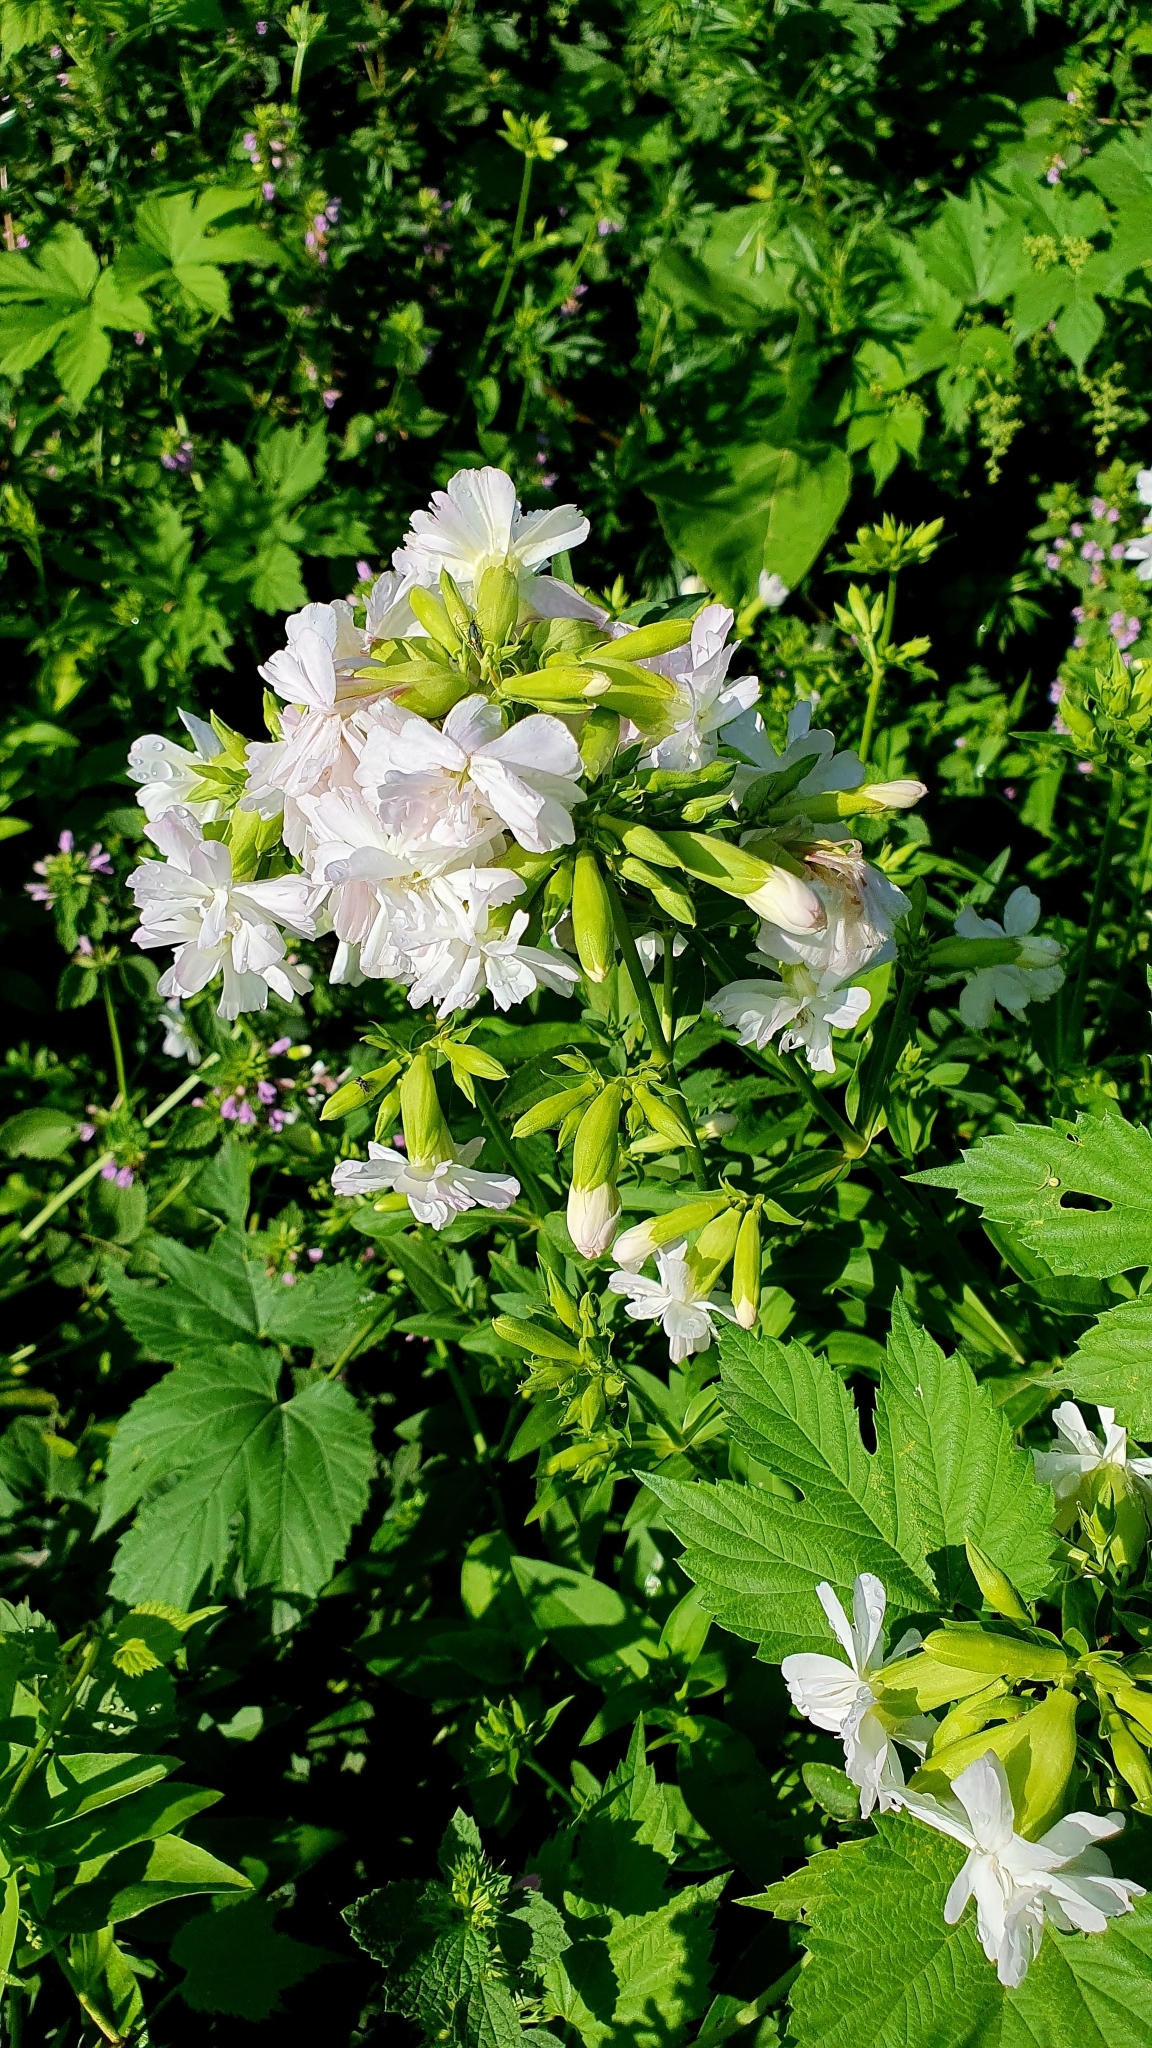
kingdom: Plantae
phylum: Tracheophyta
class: Magnoliopsida
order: Caryophyllales
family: Caryophyllaceae
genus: Saponaria
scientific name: Saponaria officinalis
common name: Soapwort
